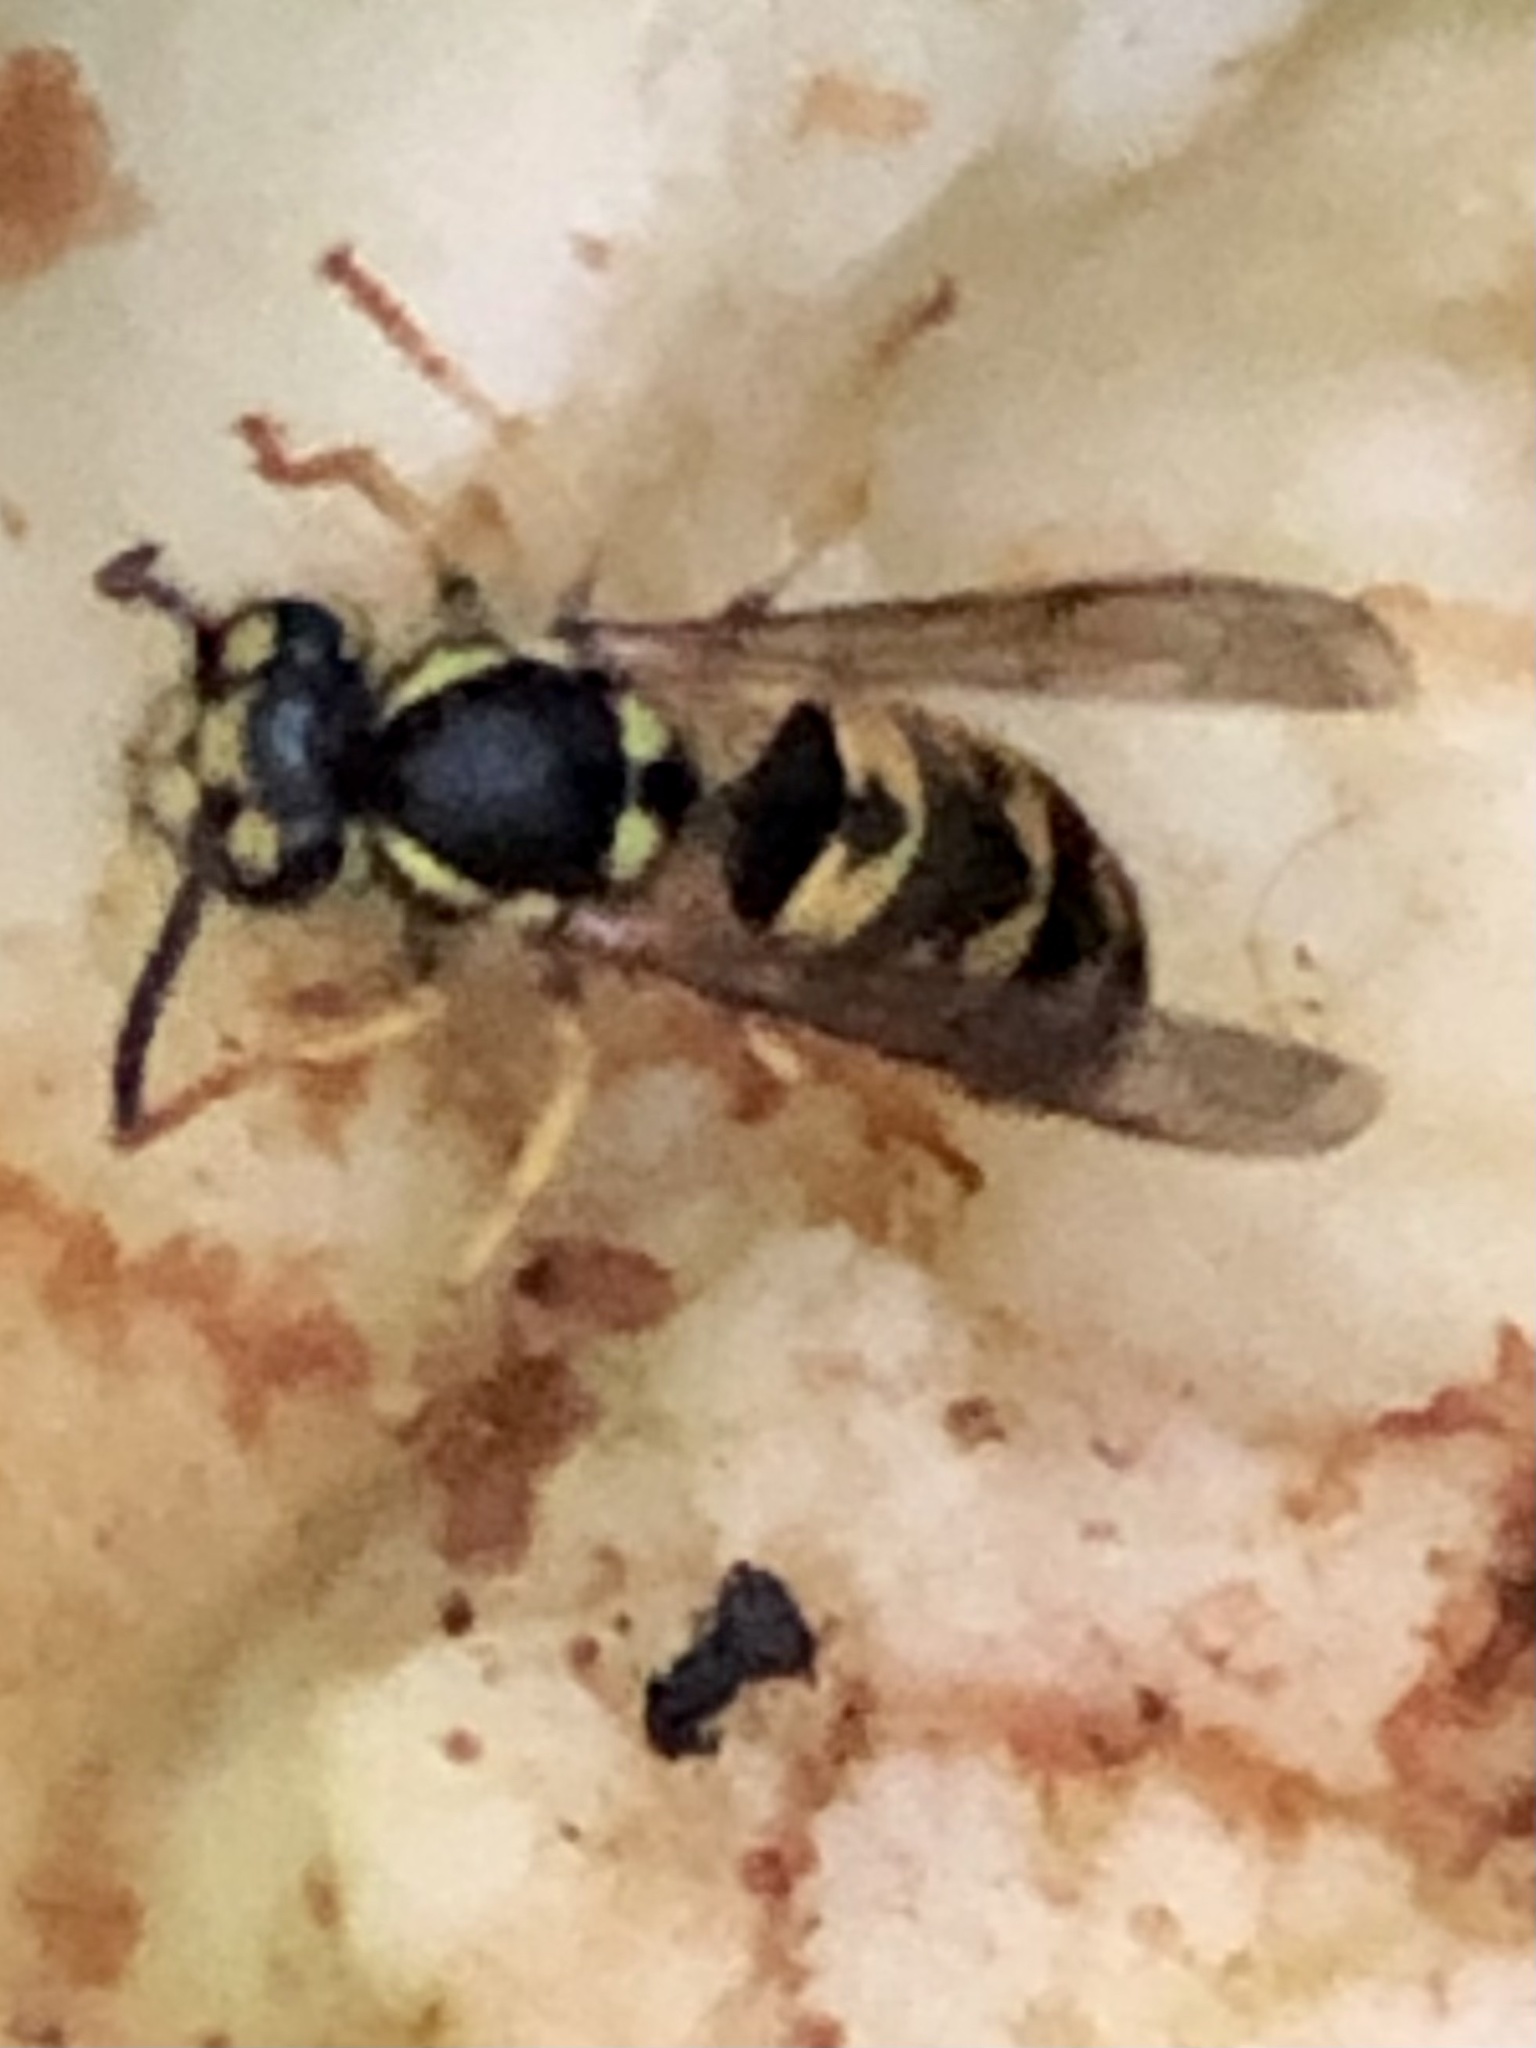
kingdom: Animalia
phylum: Arthropoda
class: Insecta
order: Hymenoptera
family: Vespidae
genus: Vespula
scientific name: Vespula germanica
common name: German wasp
